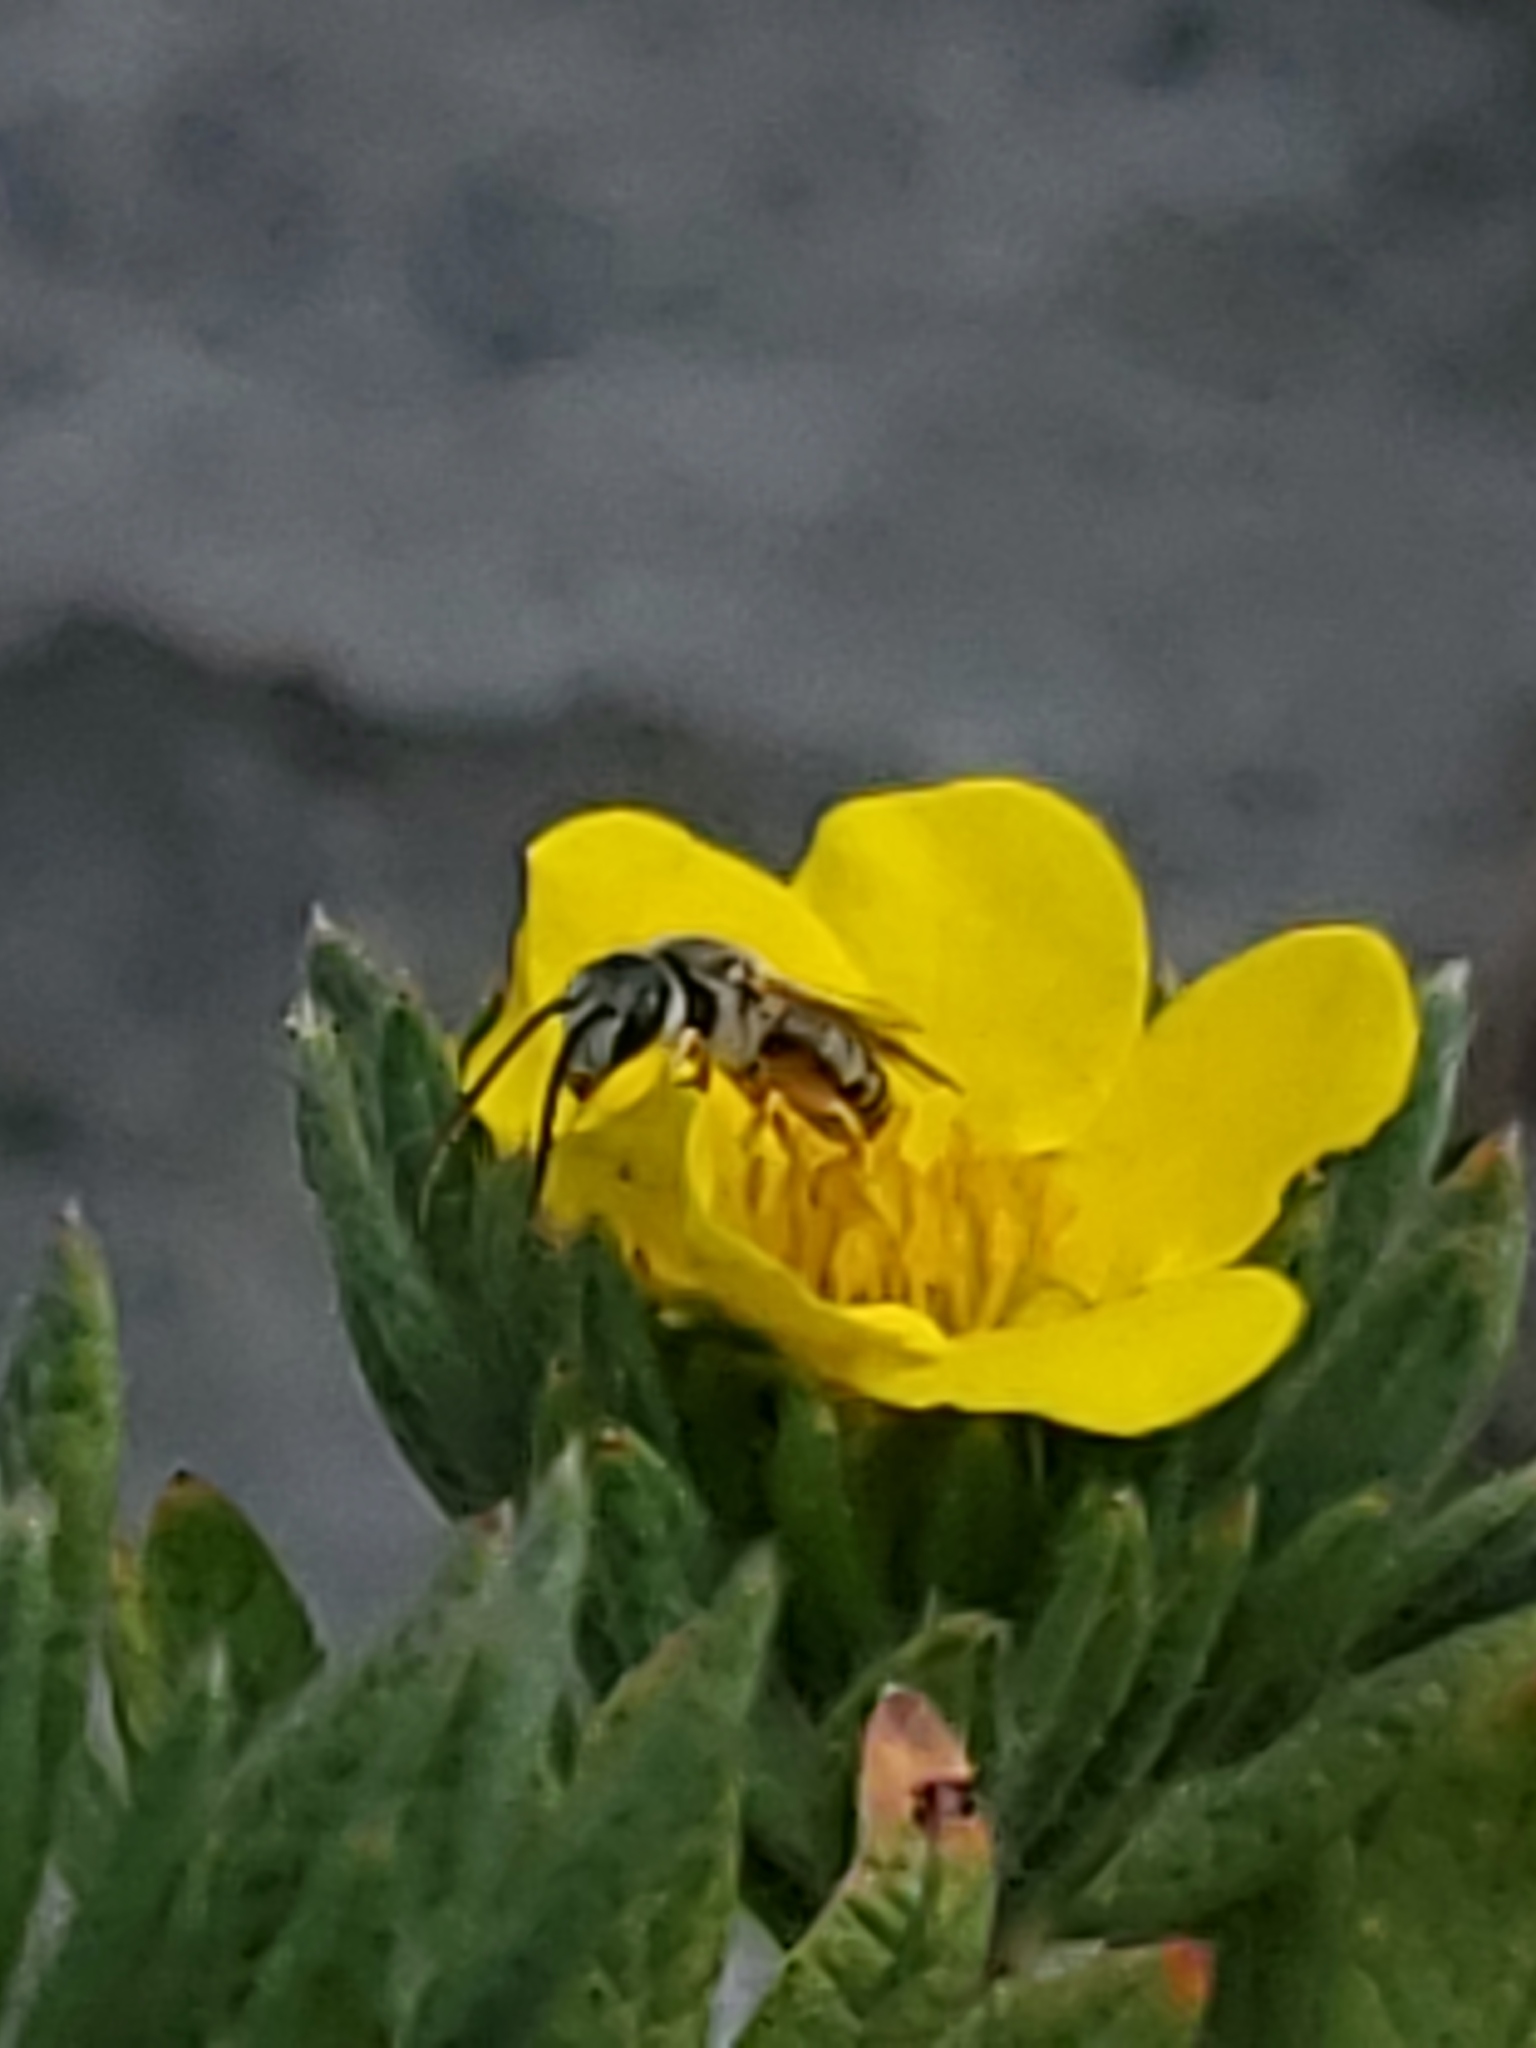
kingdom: Animalia
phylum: Arthropoda
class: Insecta
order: Hymenoptera
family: Halictidae
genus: Halictus
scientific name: Halictus confusus
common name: Southern bronze furrow bee
